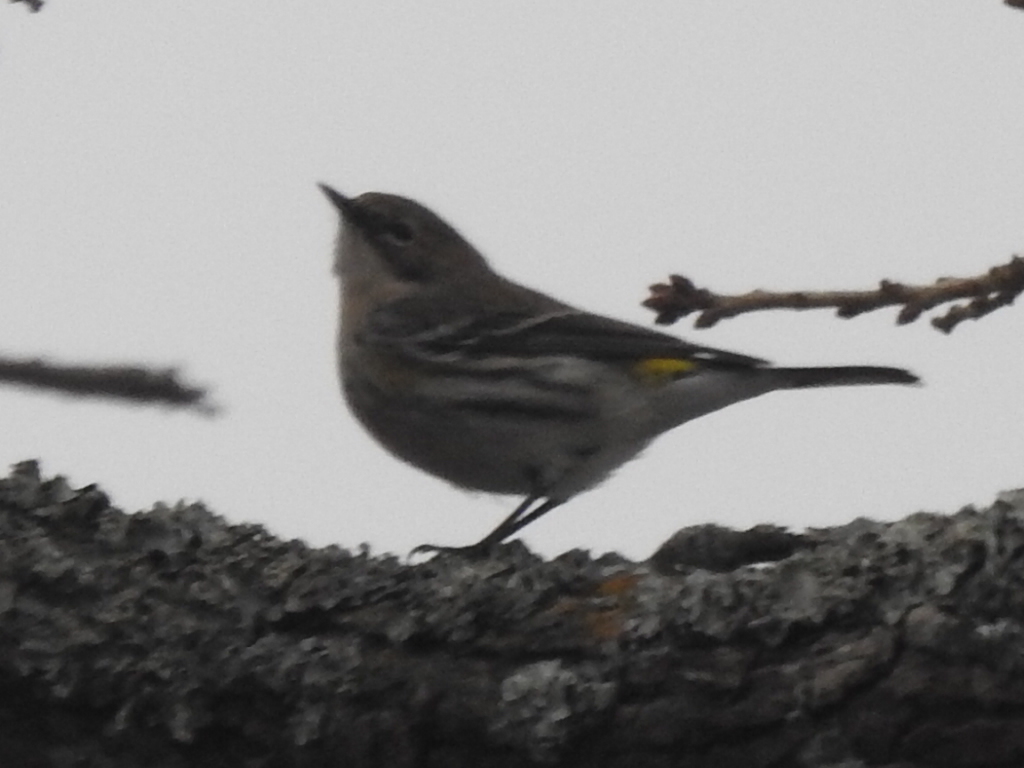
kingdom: Animalia
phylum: Chordata
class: Aves
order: Passeriformes
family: Parulidae
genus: Setophaga
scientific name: Setophaga coronata
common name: Myrtle warbler
